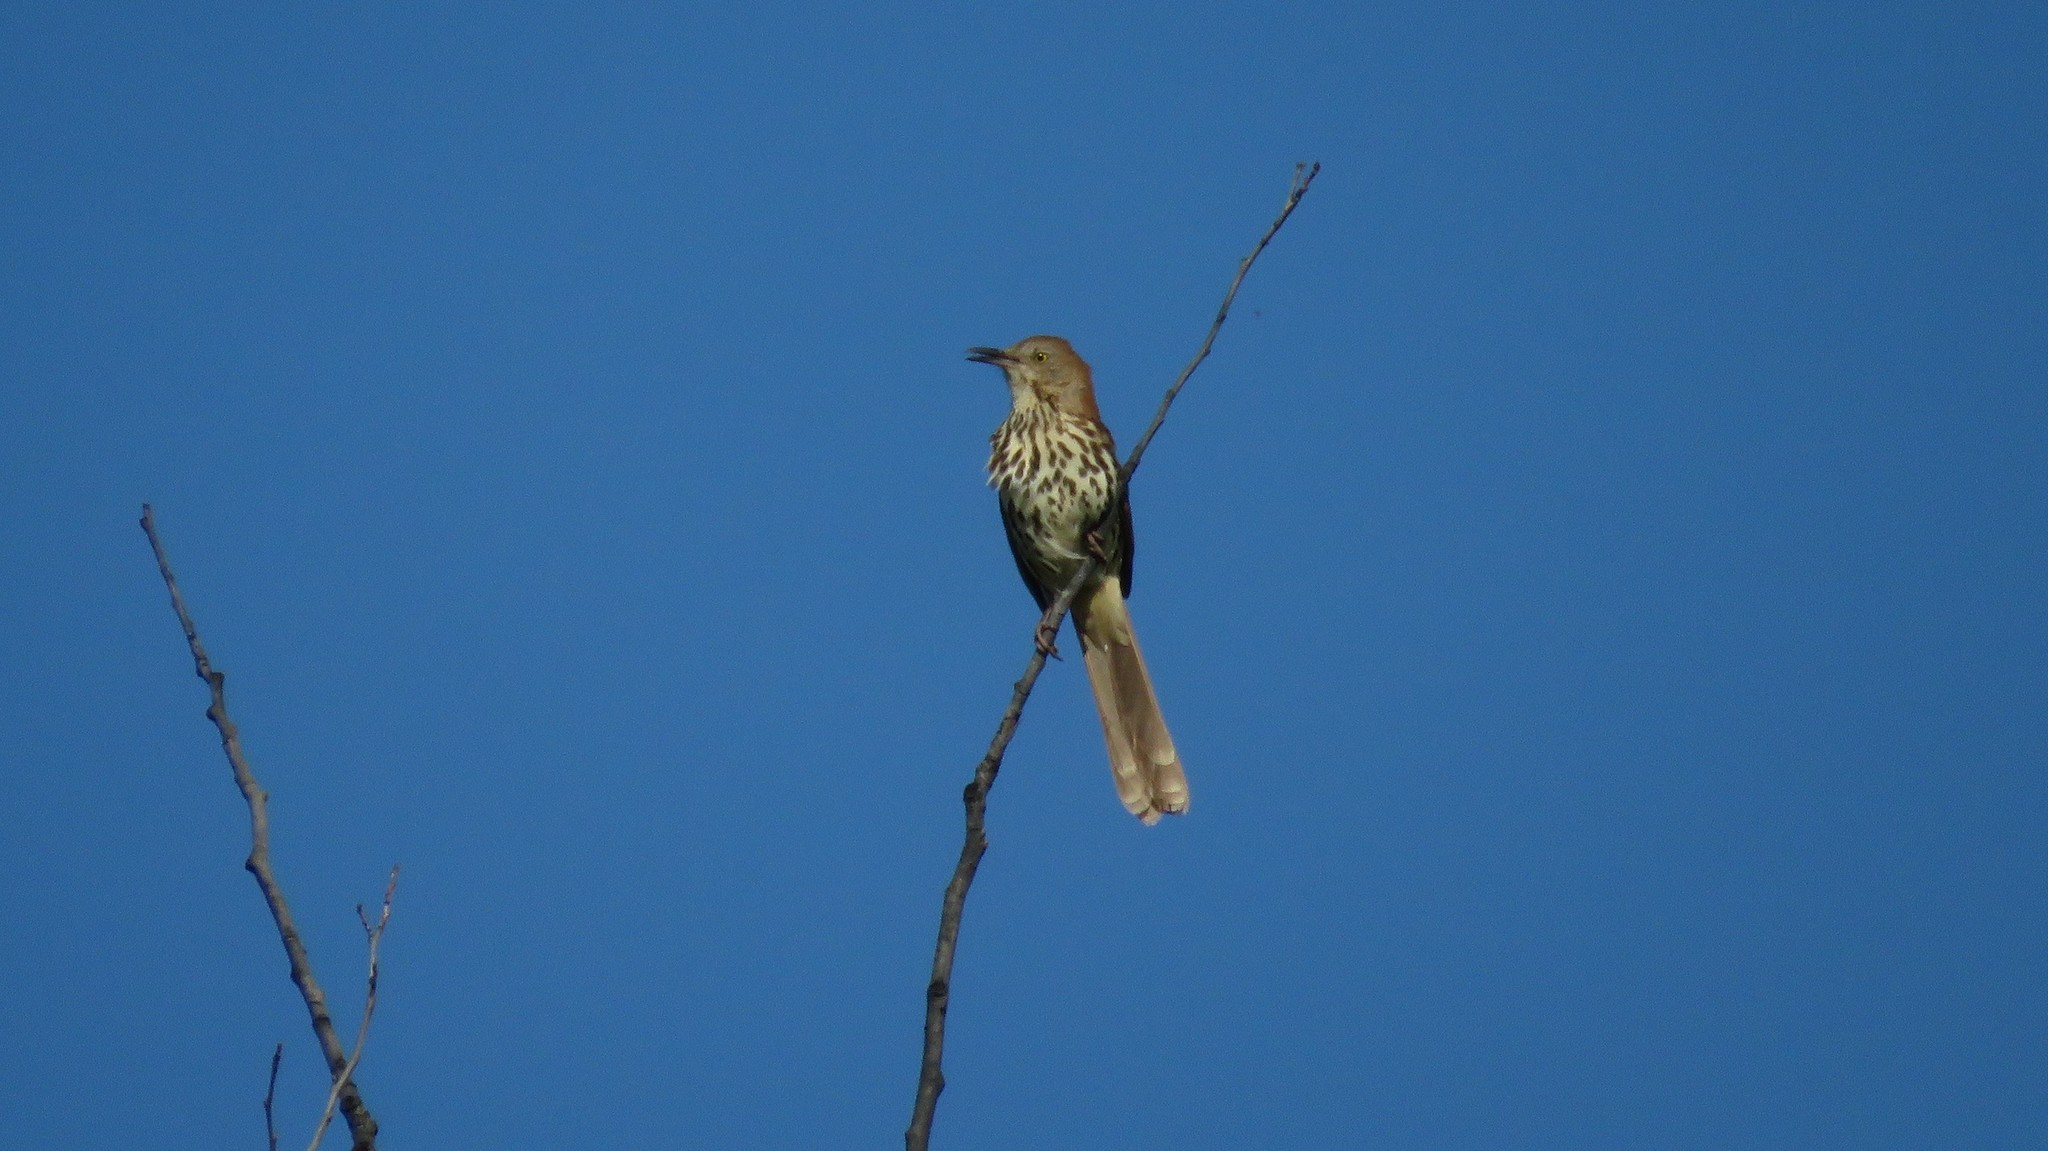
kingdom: Animalia
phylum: Chordata
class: Aves
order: Passeriformes
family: Mimidae
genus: Toxostoma
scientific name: Toxostoma rufum
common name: Brown thrasher
